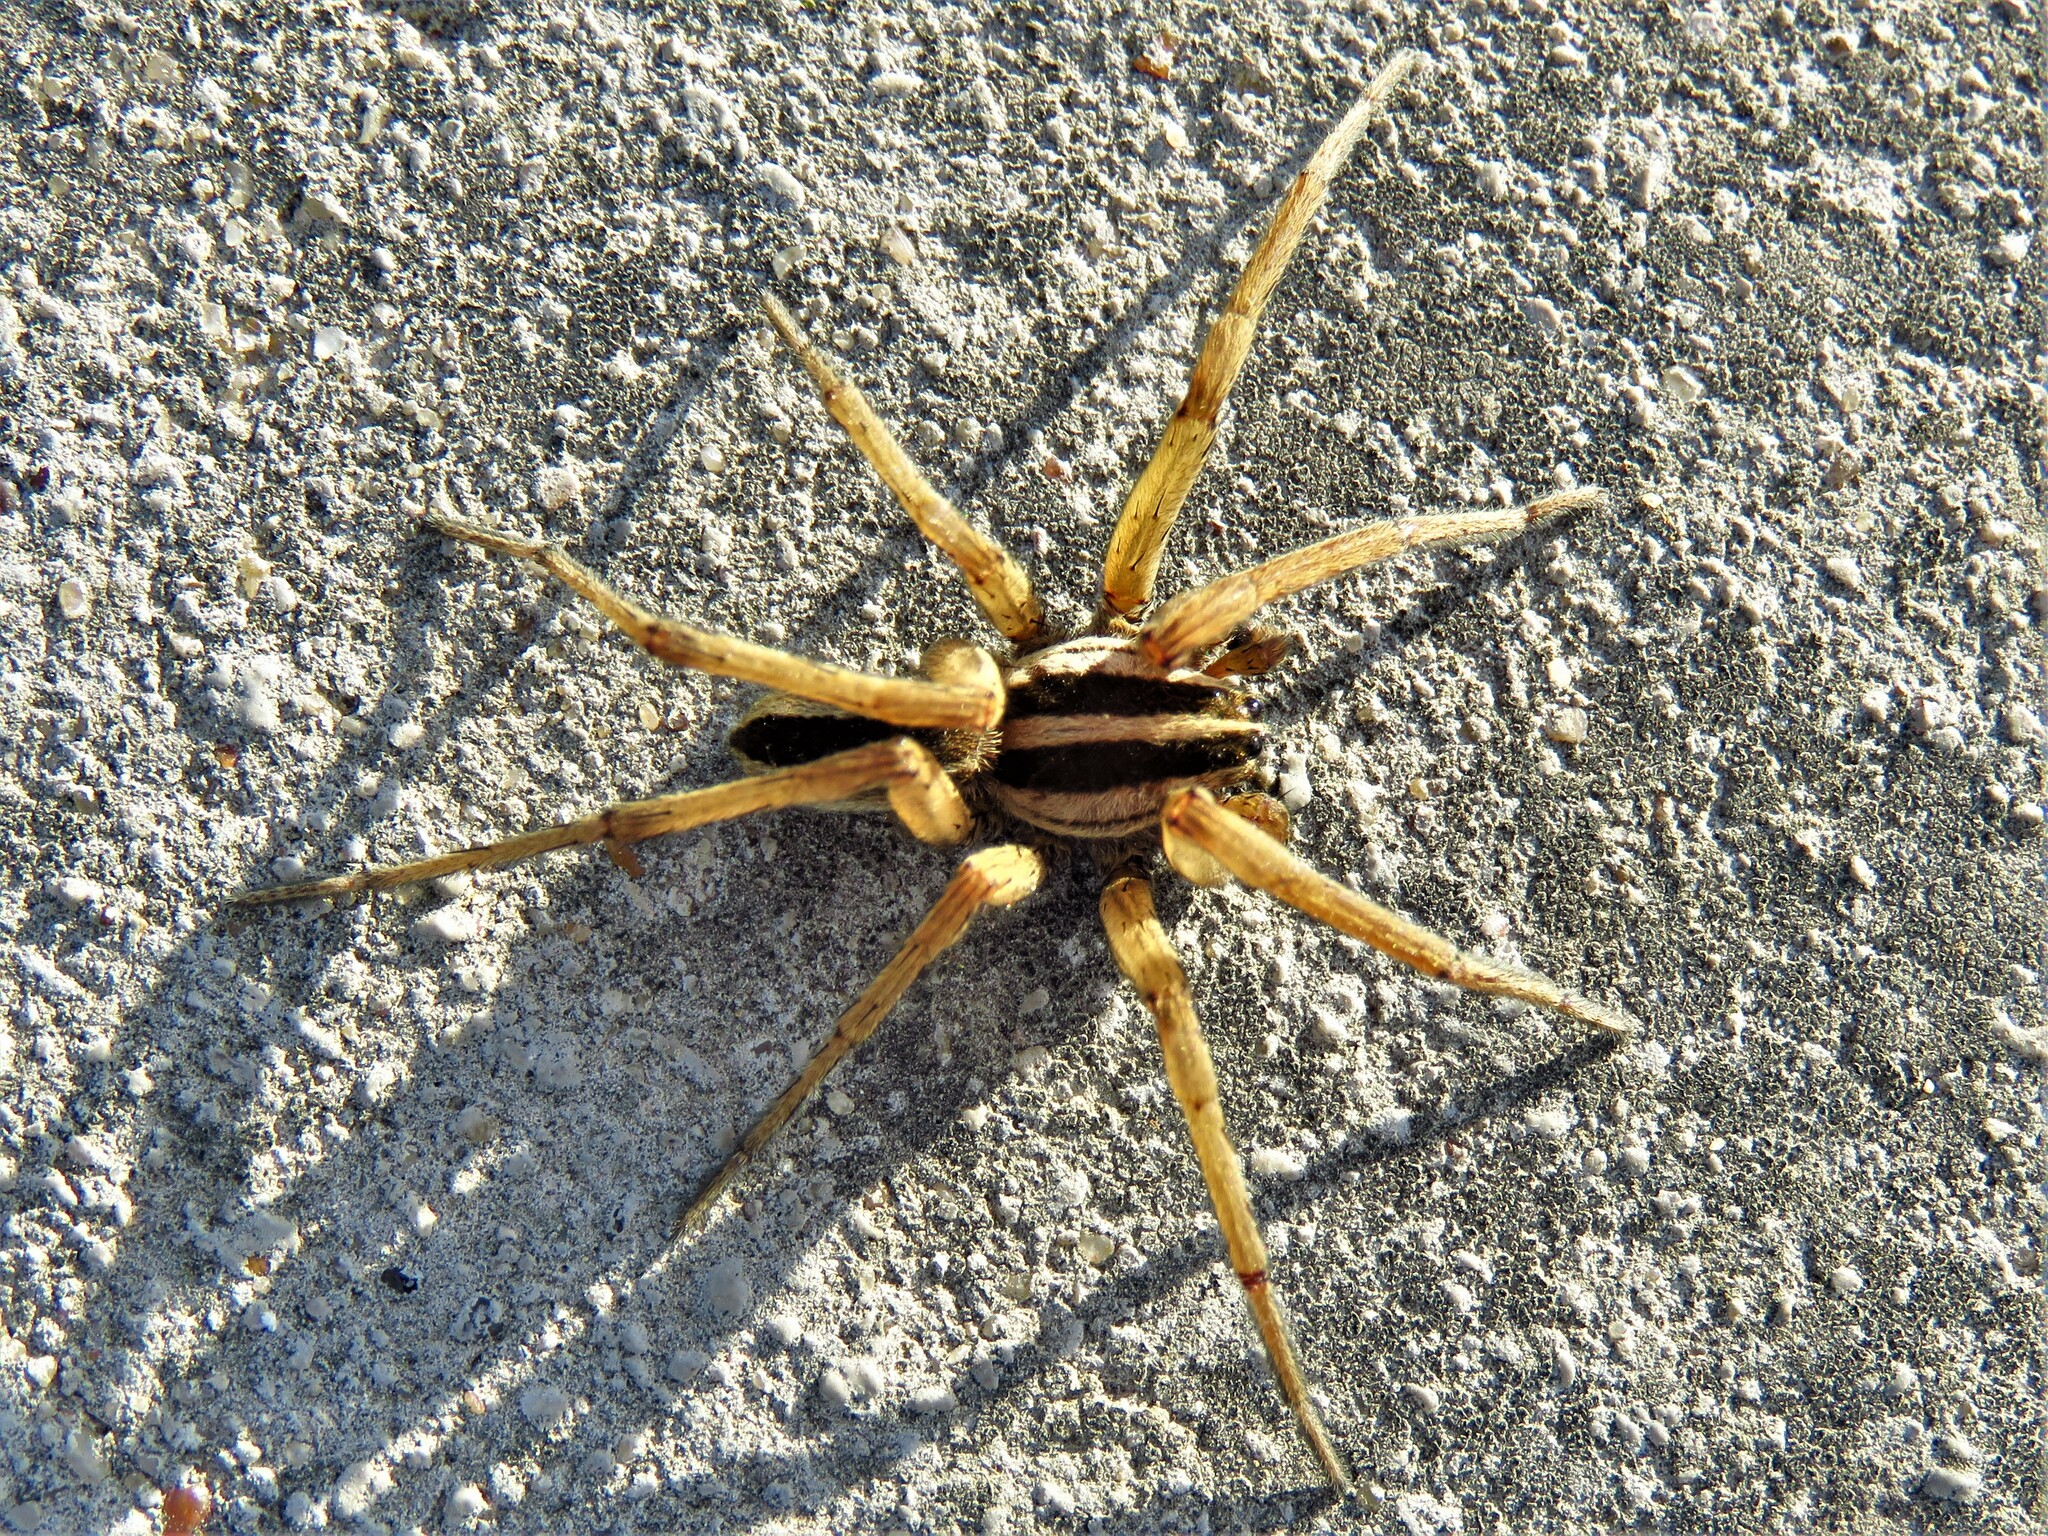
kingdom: Animalia
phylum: Arthropoda
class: Arachnida
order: Araneae
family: Lycosidae
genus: Rabidosa
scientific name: Rabidosa punctulata
